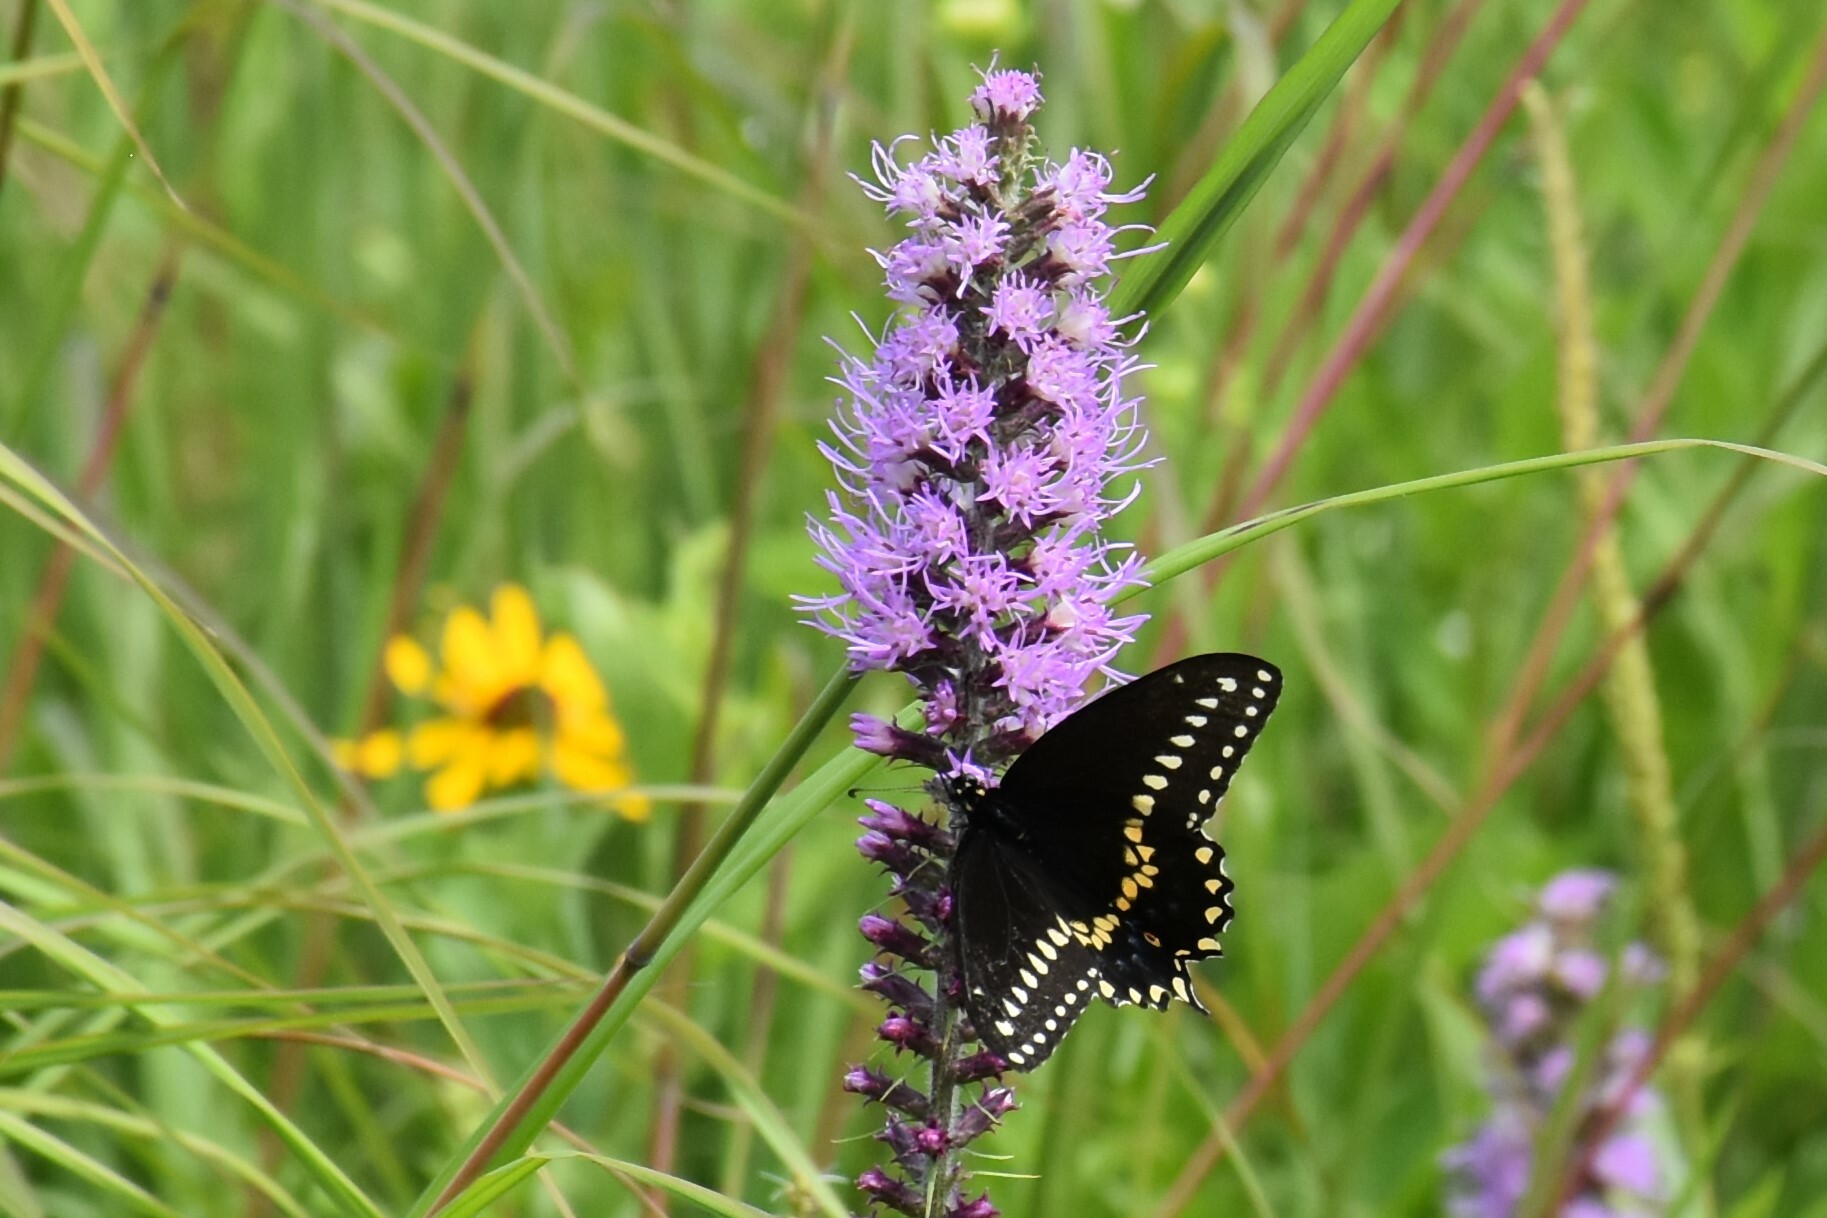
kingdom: Animalia
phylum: Arthropoda
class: Insecta
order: Lepidoptera
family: Papilionidae
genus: Papilio
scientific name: Papilio polyxenes
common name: Black swallowtail
